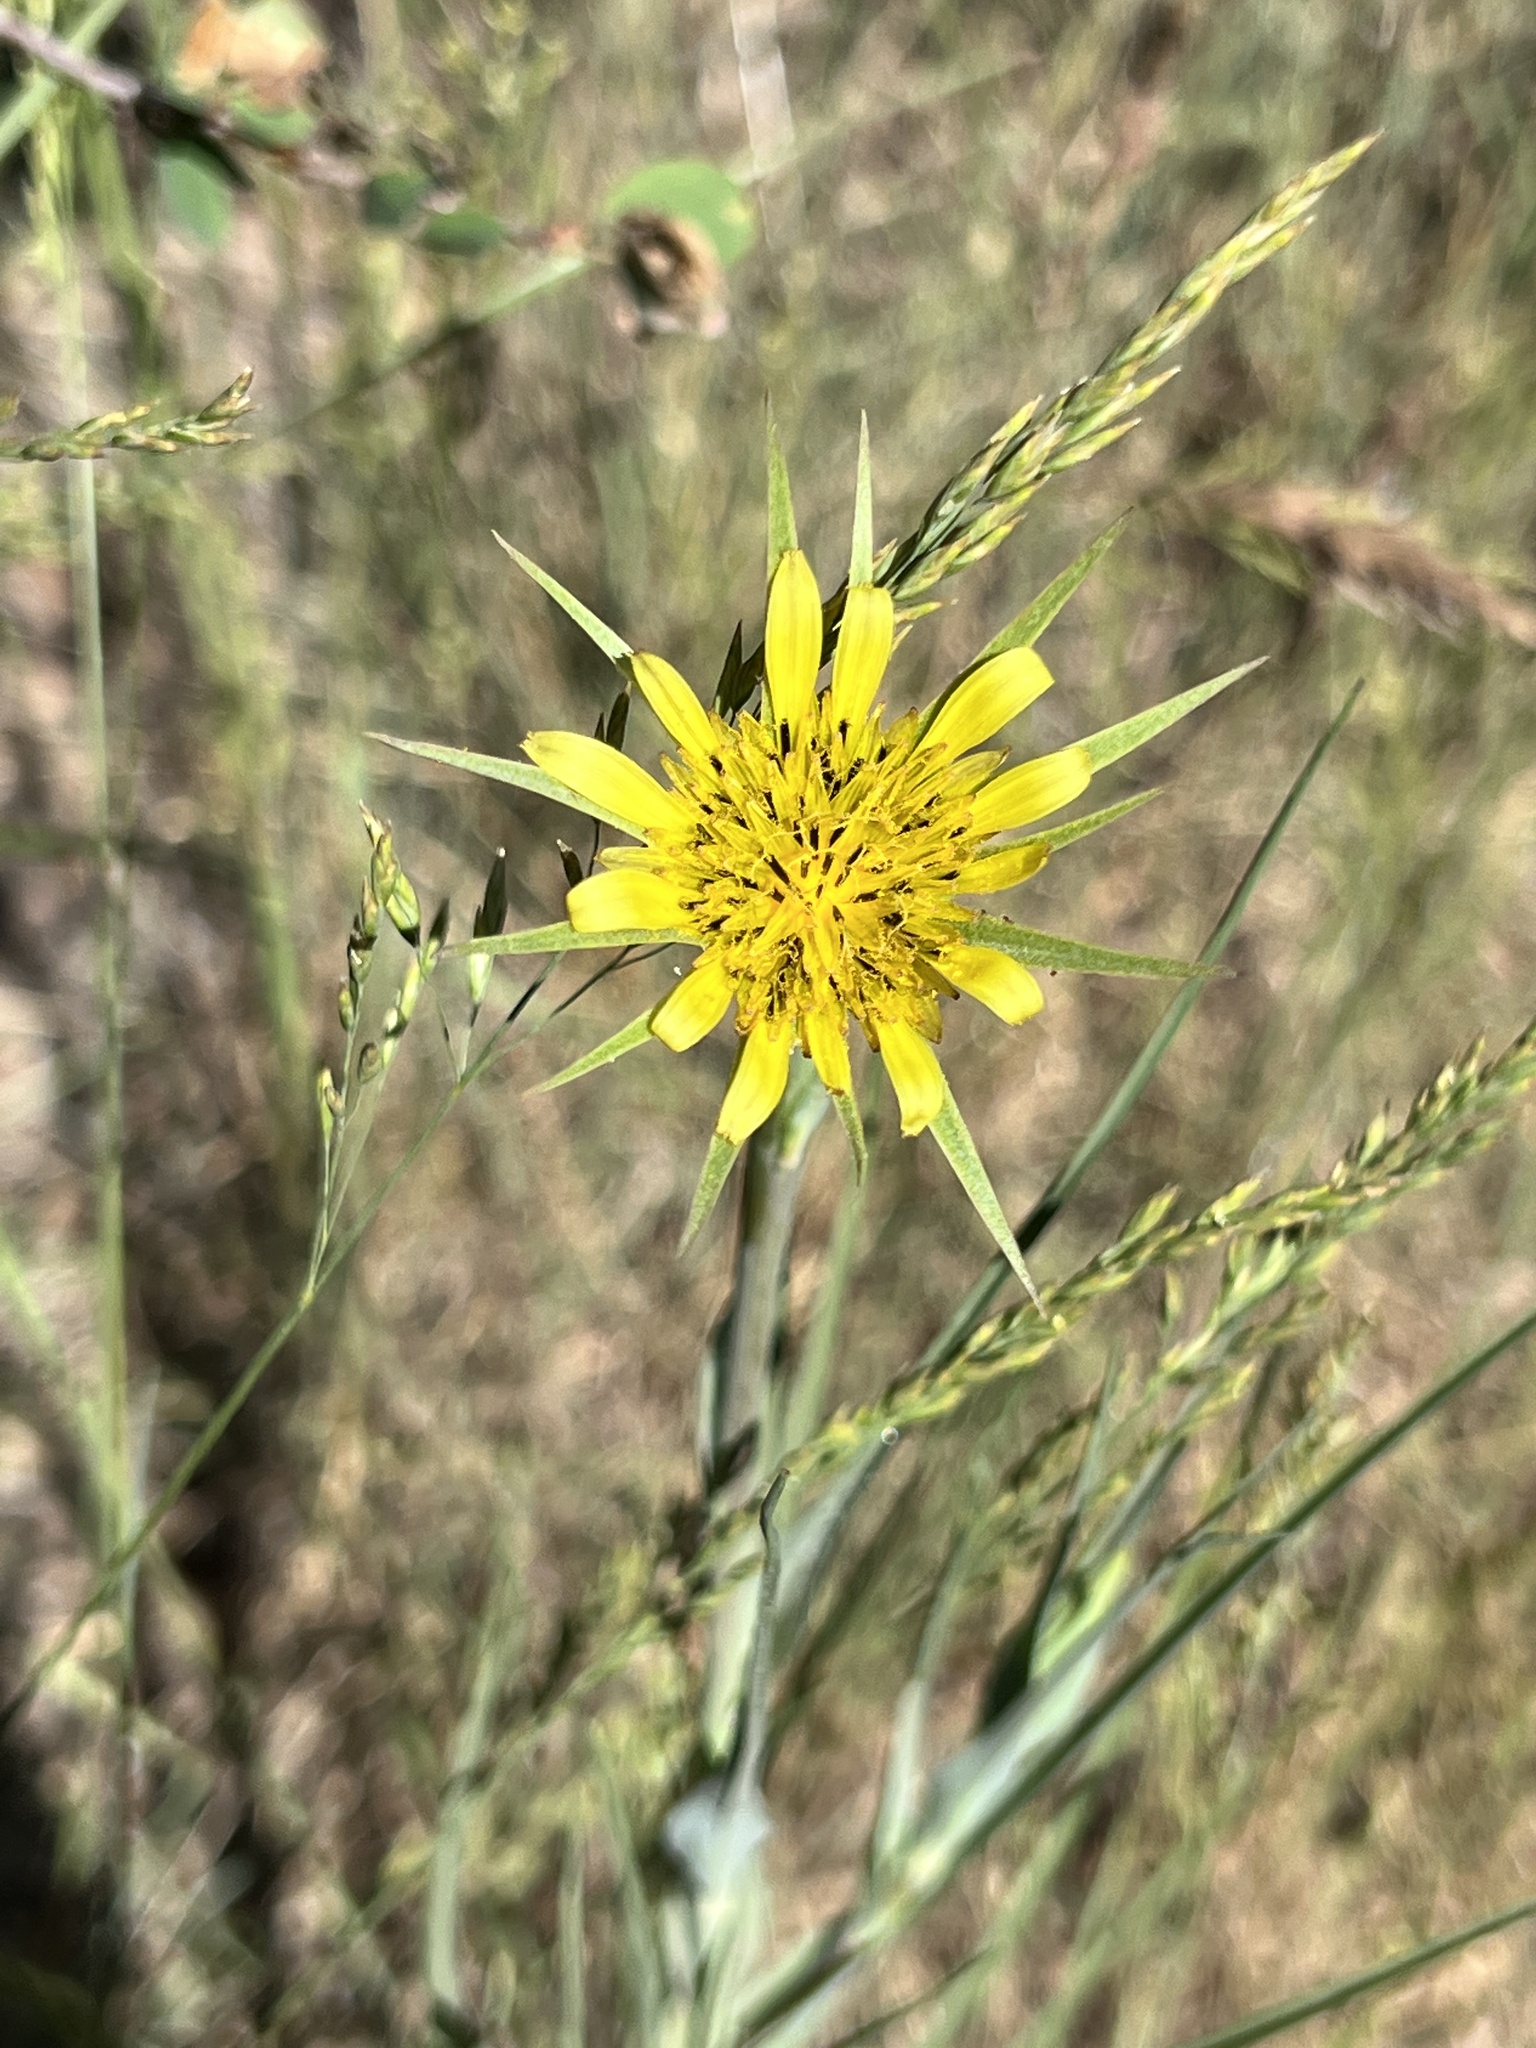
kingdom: Plantae
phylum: Tracheophyta
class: Magnoliopsida
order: Asterales
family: Asteraceae
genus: Tragopogon
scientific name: Tragopogon dubius
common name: Yellow salsify
